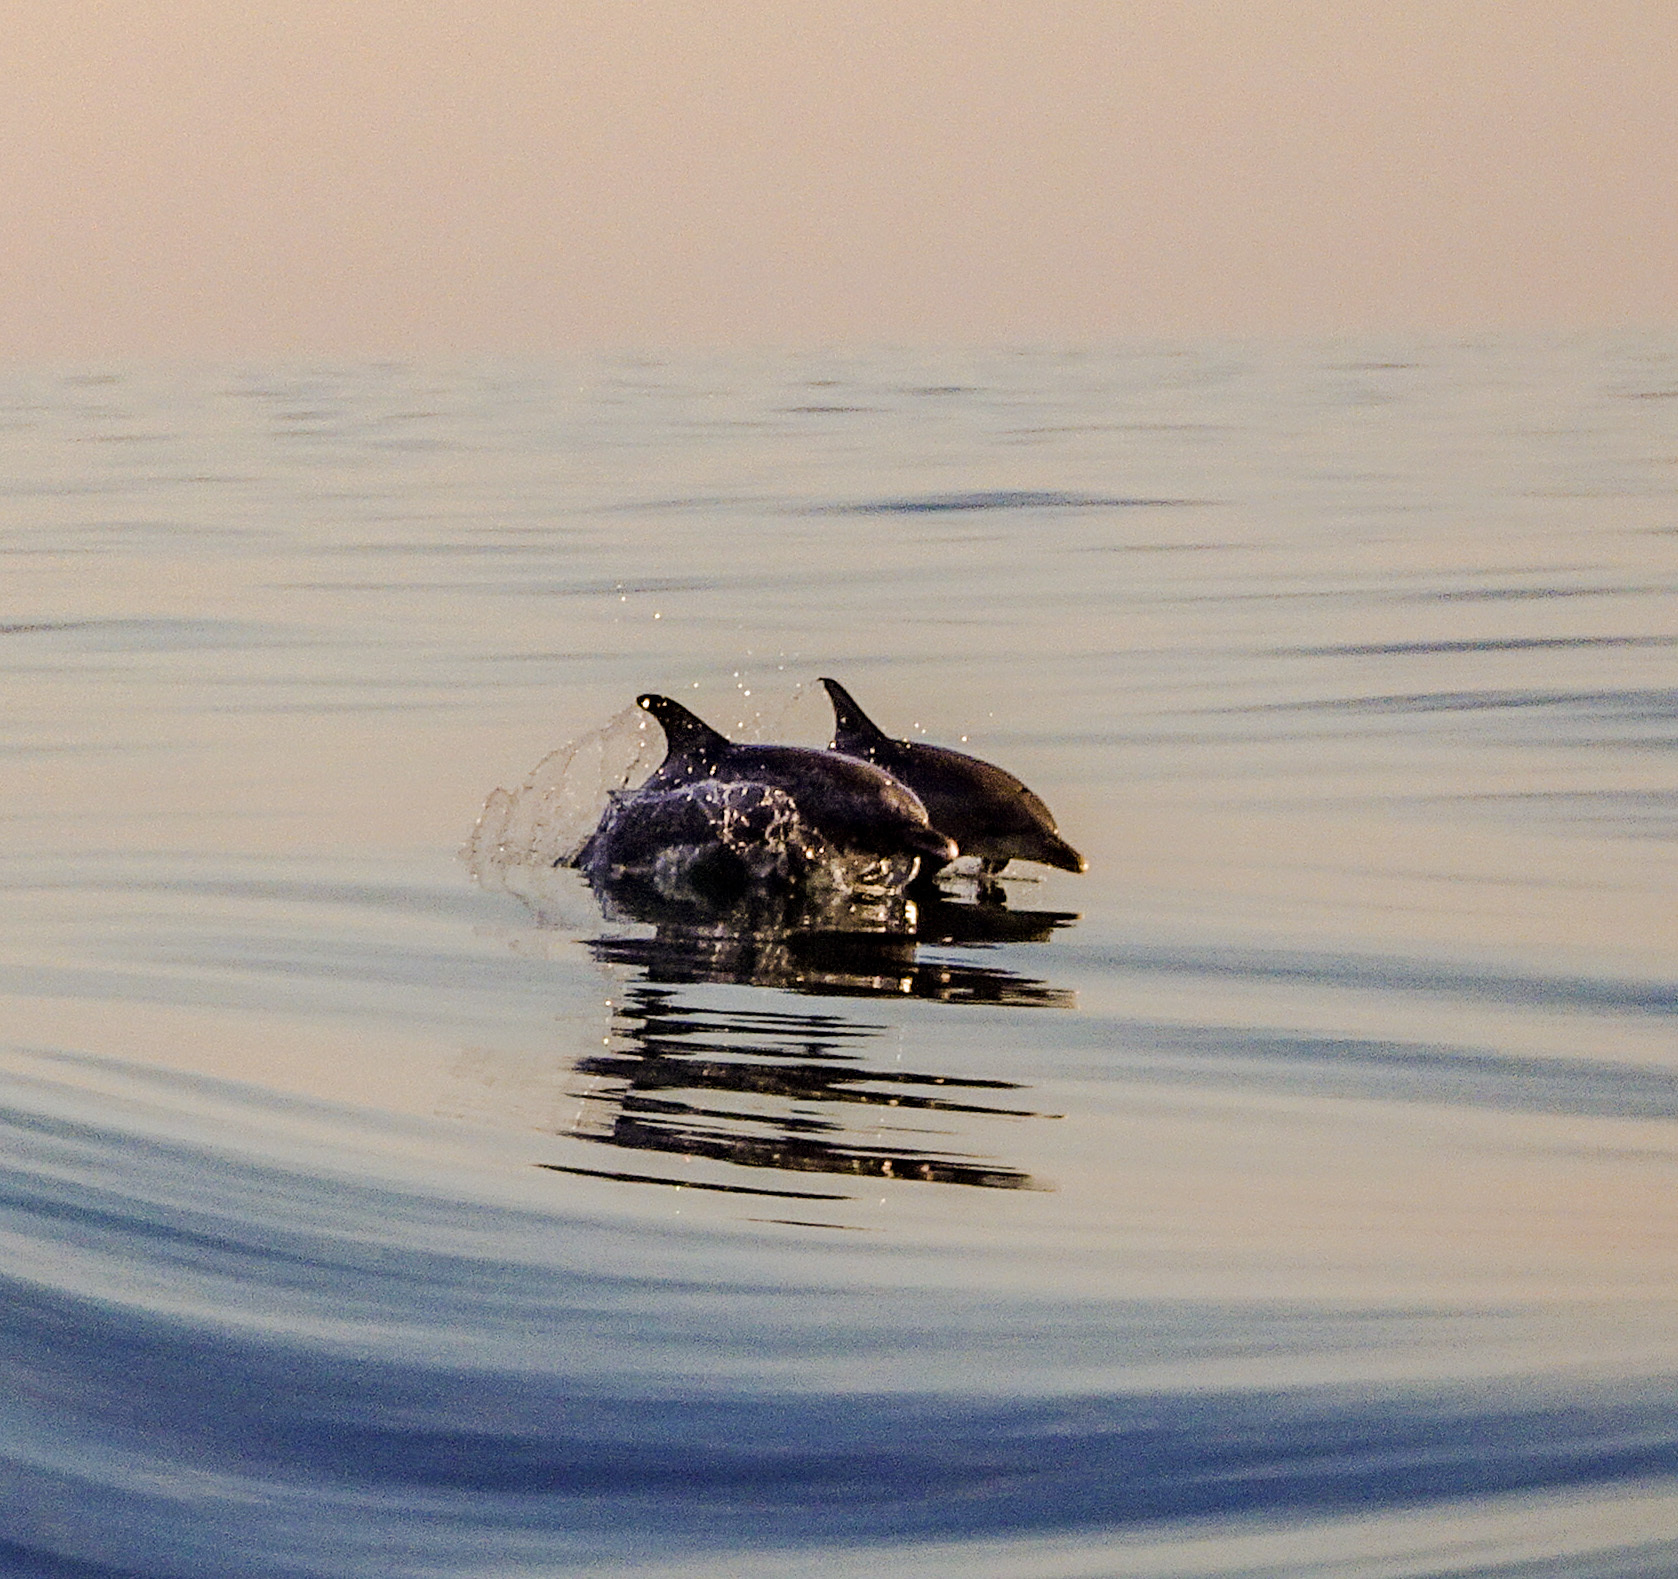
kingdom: Animalia
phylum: Chordata
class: Mammalia
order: Cetacea
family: Delphinidae
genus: Tursiops
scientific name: Tursiops truncatus
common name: Bottlenose dolphin
